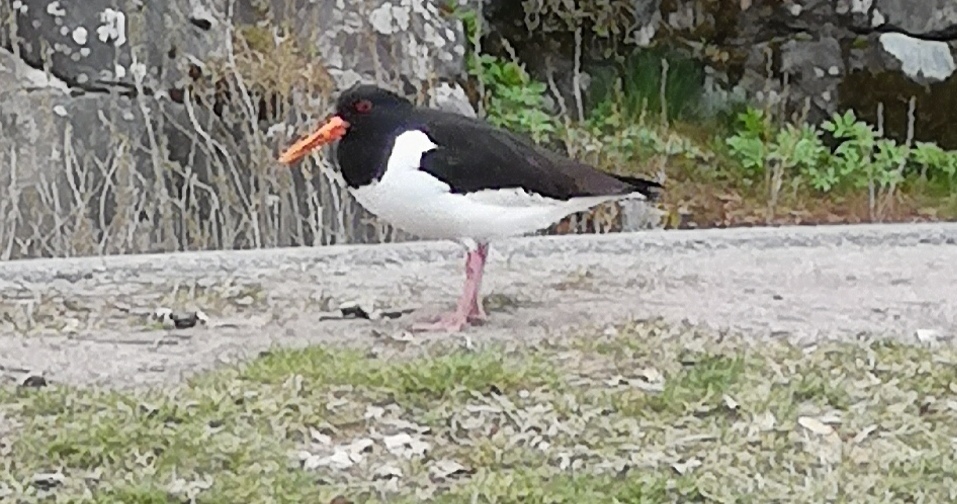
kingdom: Animalia
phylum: Chordata
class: Aves
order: Charadriiformes
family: Haematopodidae
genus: Haematopus
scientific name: Haematopus ostralegus
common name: Eurasian oystercatcher
